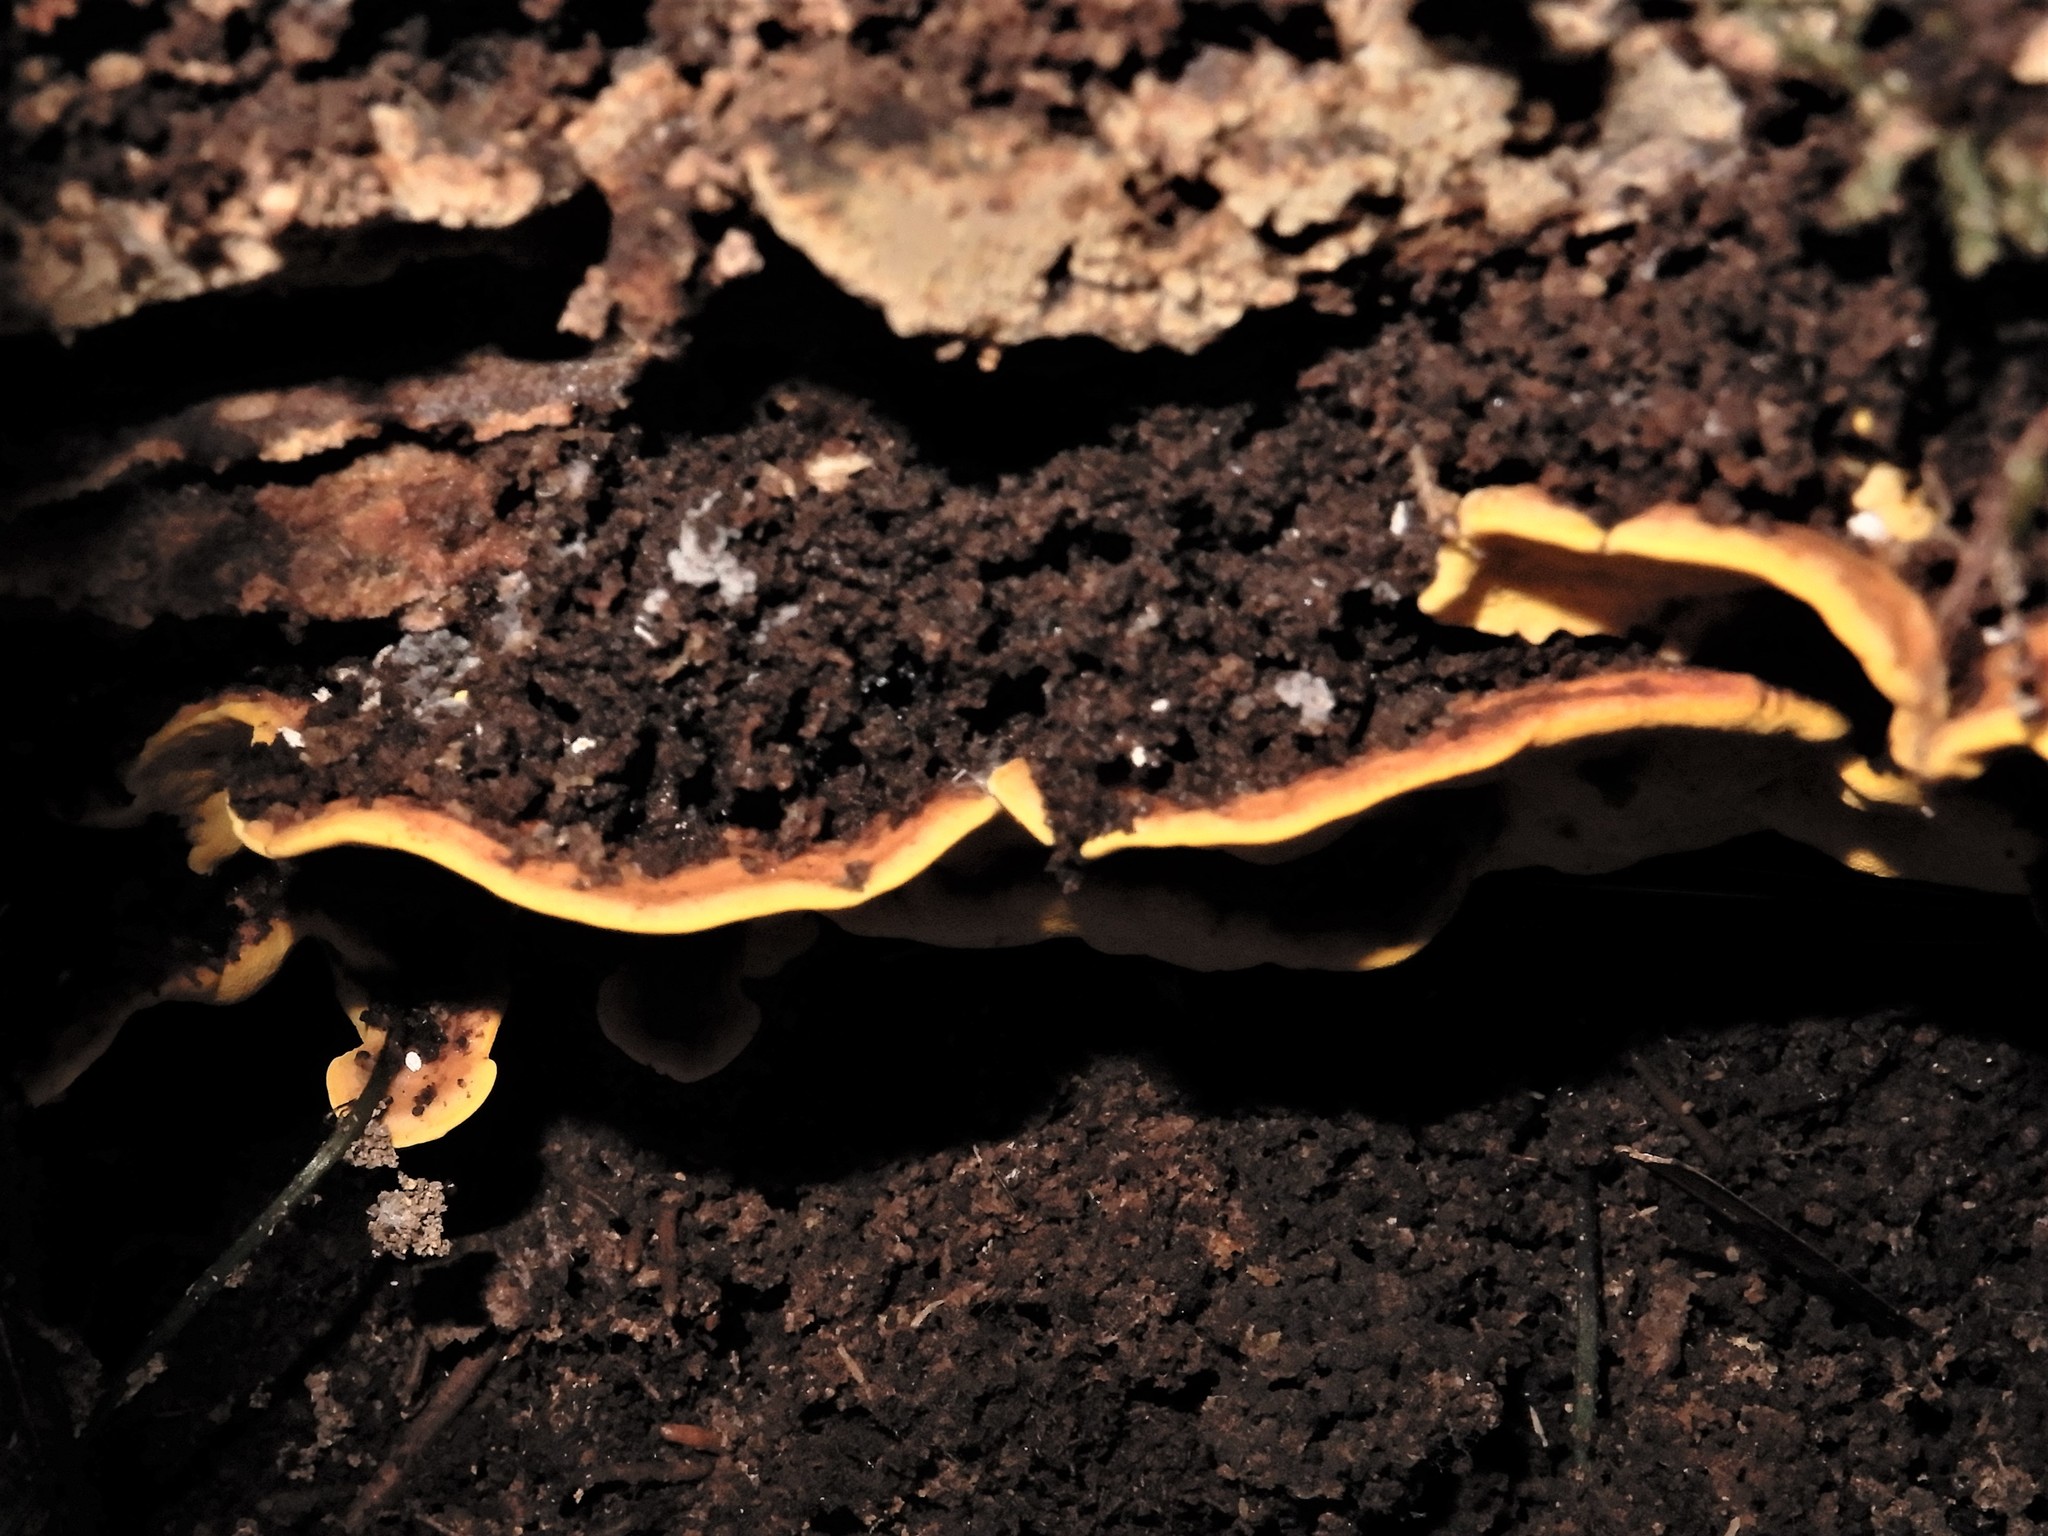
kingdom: Fungi
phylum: Basidiomycota
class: Agaricomycetes
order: Polyporales
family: Steccherinaceae
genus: Flaviporus
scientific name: Flaviporus brownii
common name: Yellowpored bracket
